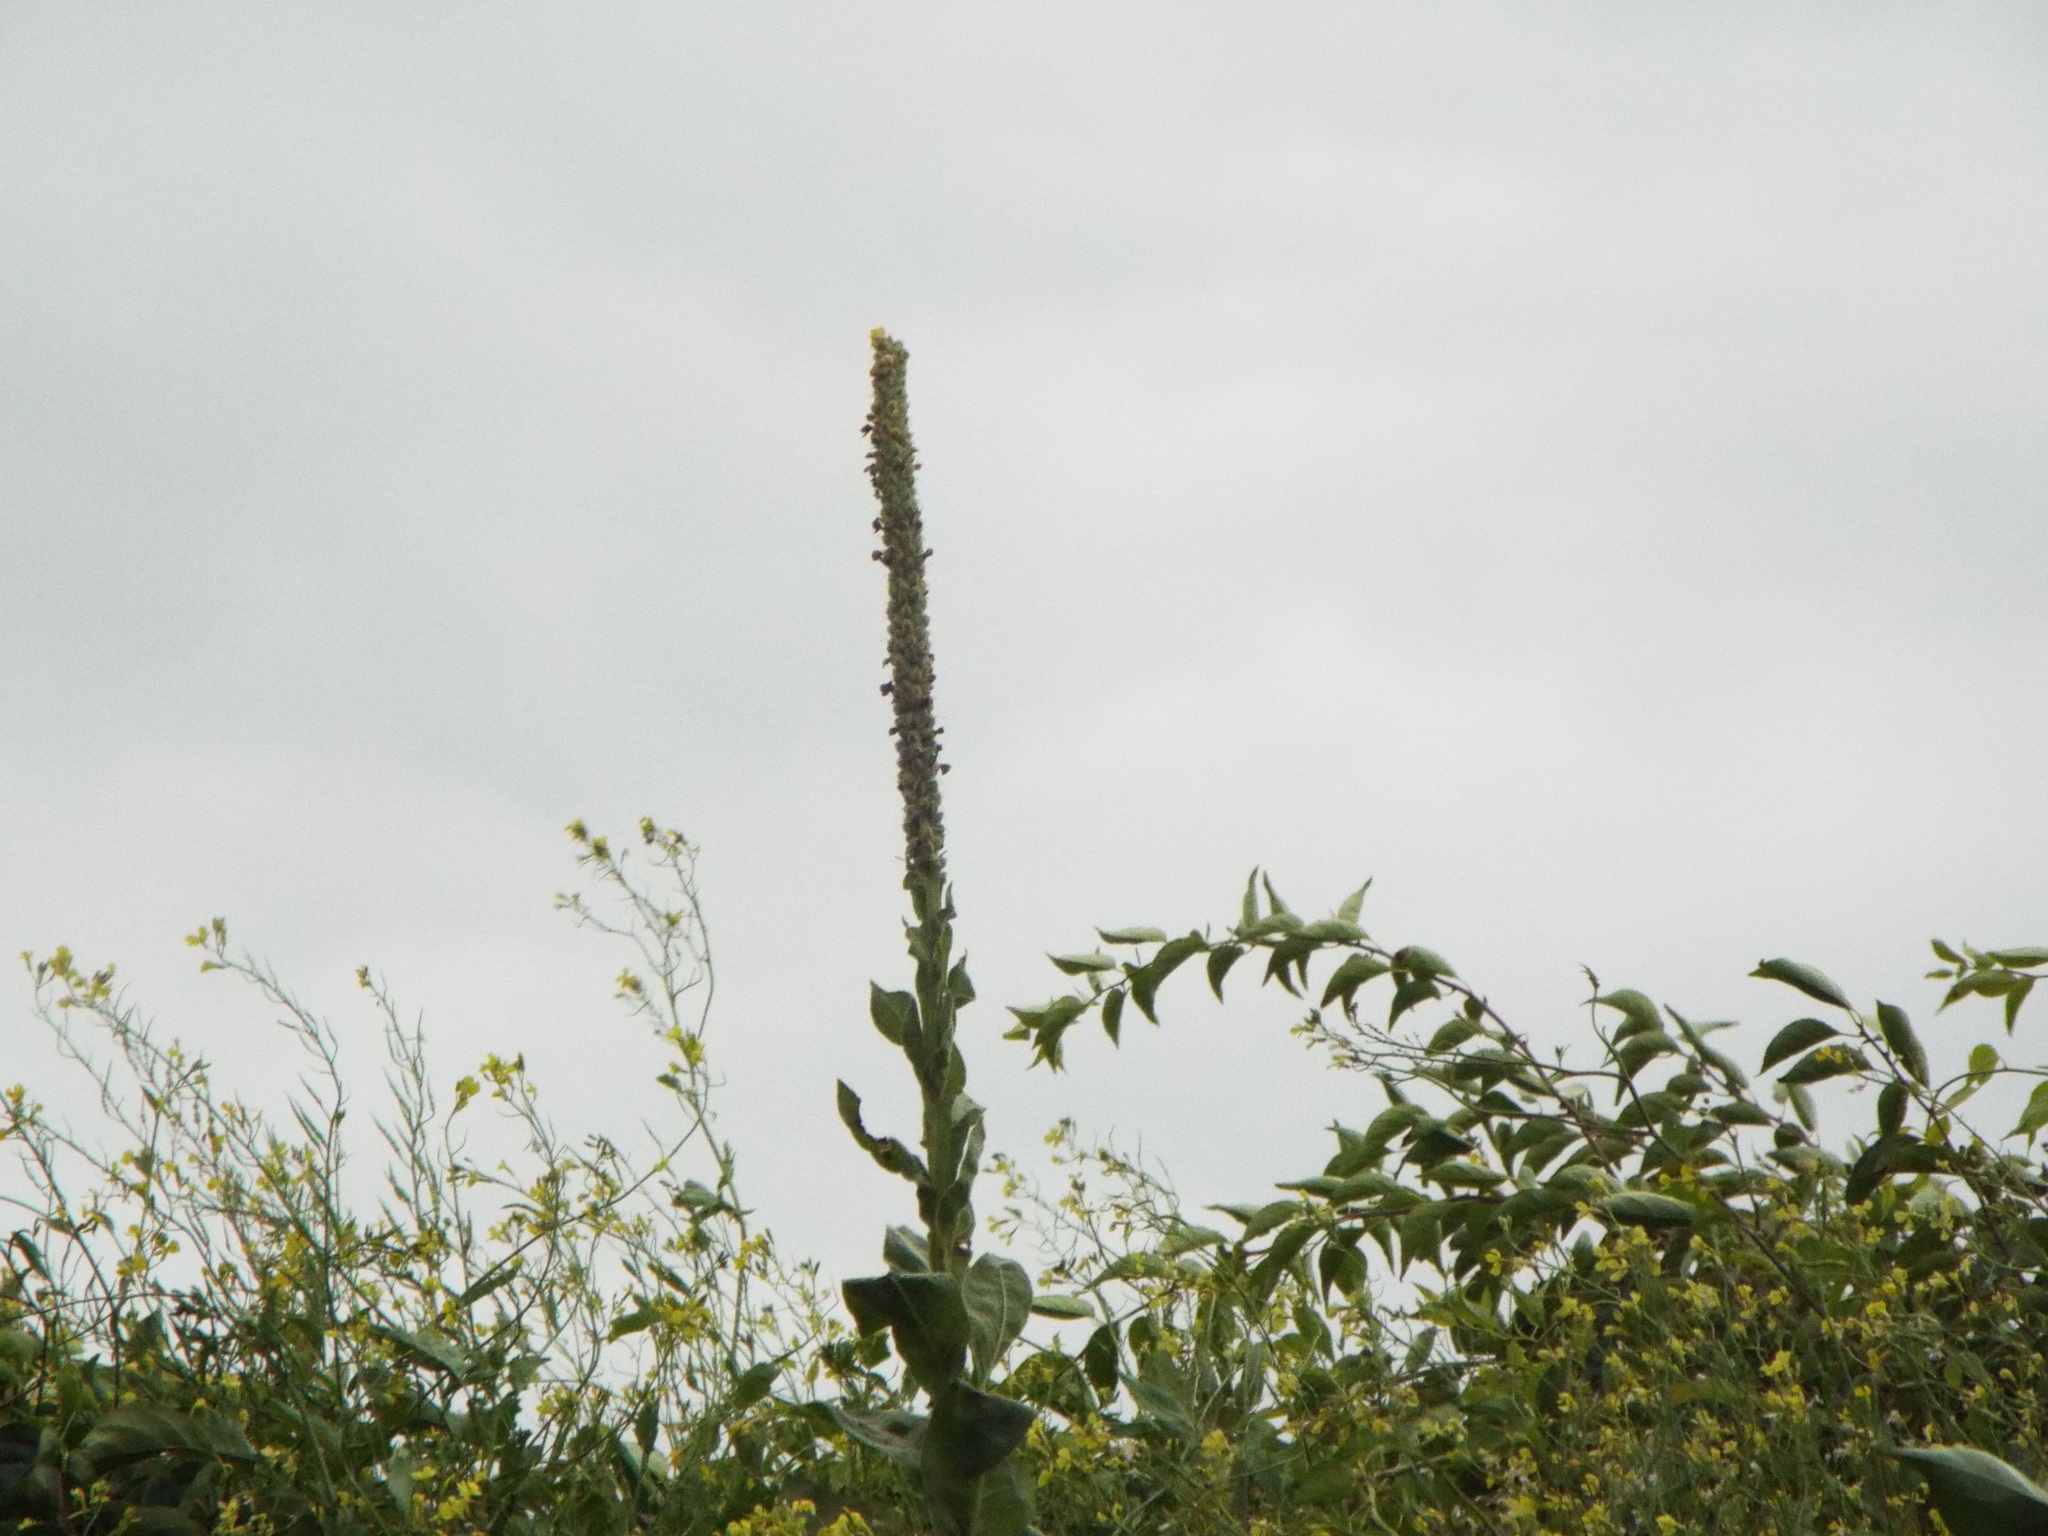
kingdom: Plantae
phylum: Tracheophyta
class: Magnoliopsida
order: Lamiales
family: Scrophulariaceae
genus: Verbascum
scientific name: Verbascum thapsus
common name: Common mullein
